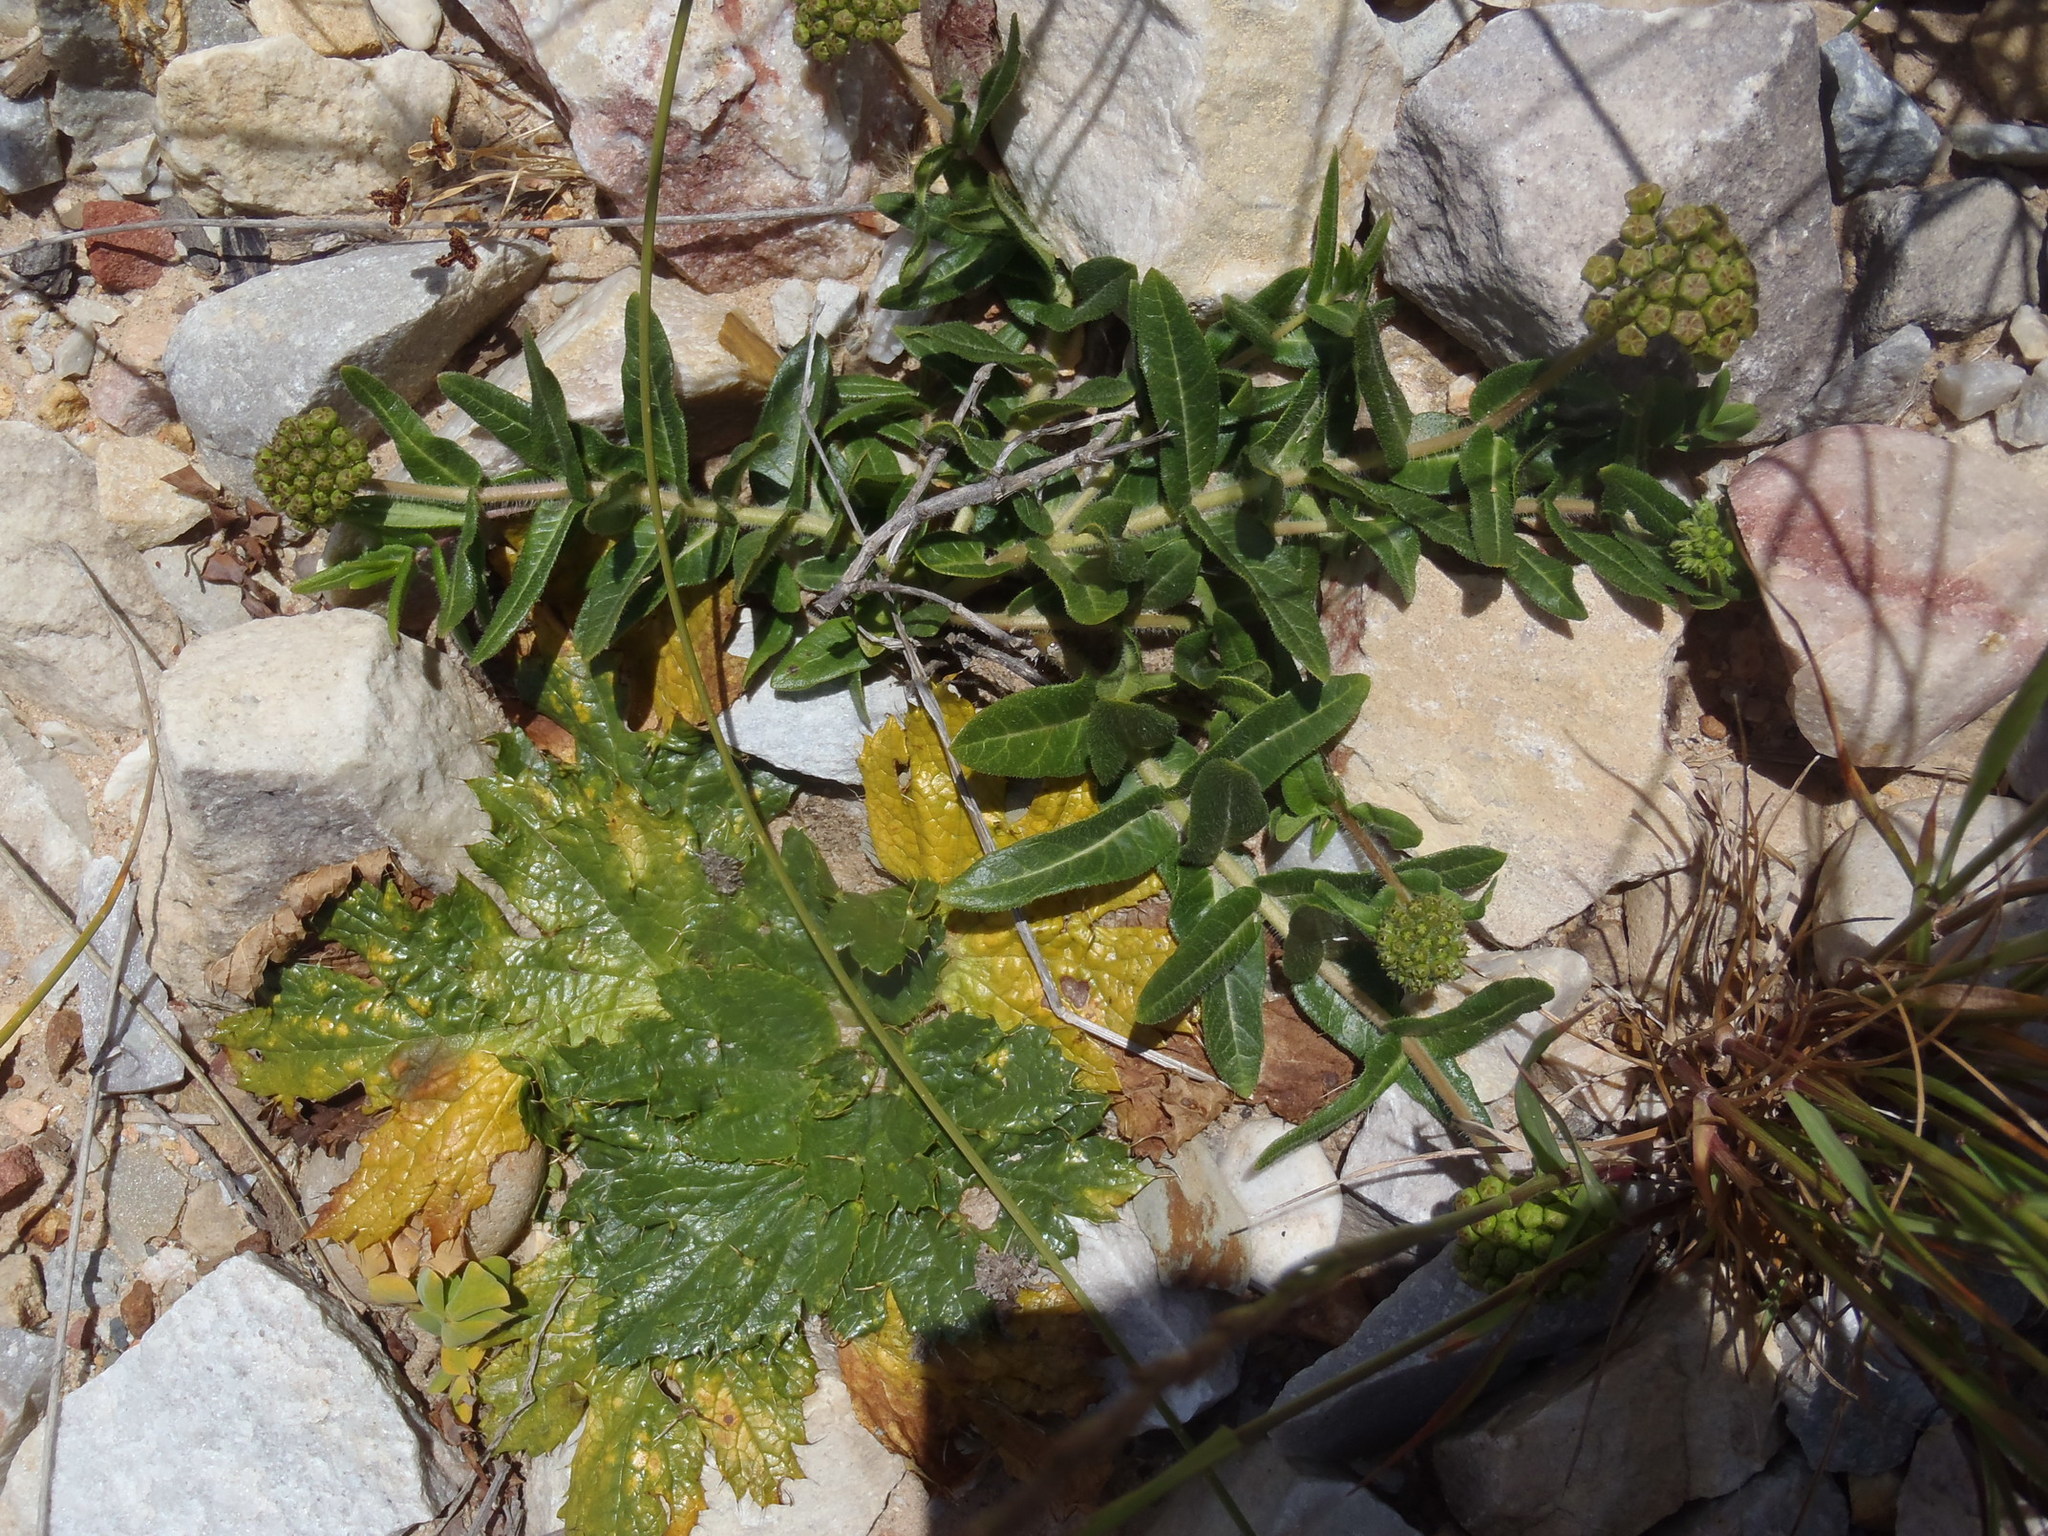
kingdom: Plantae
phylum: Tracheophyta
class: Magnoliopsida
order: Gentianales
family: Apocynaceae
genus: Asclepias
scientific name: Asclepias crispa
